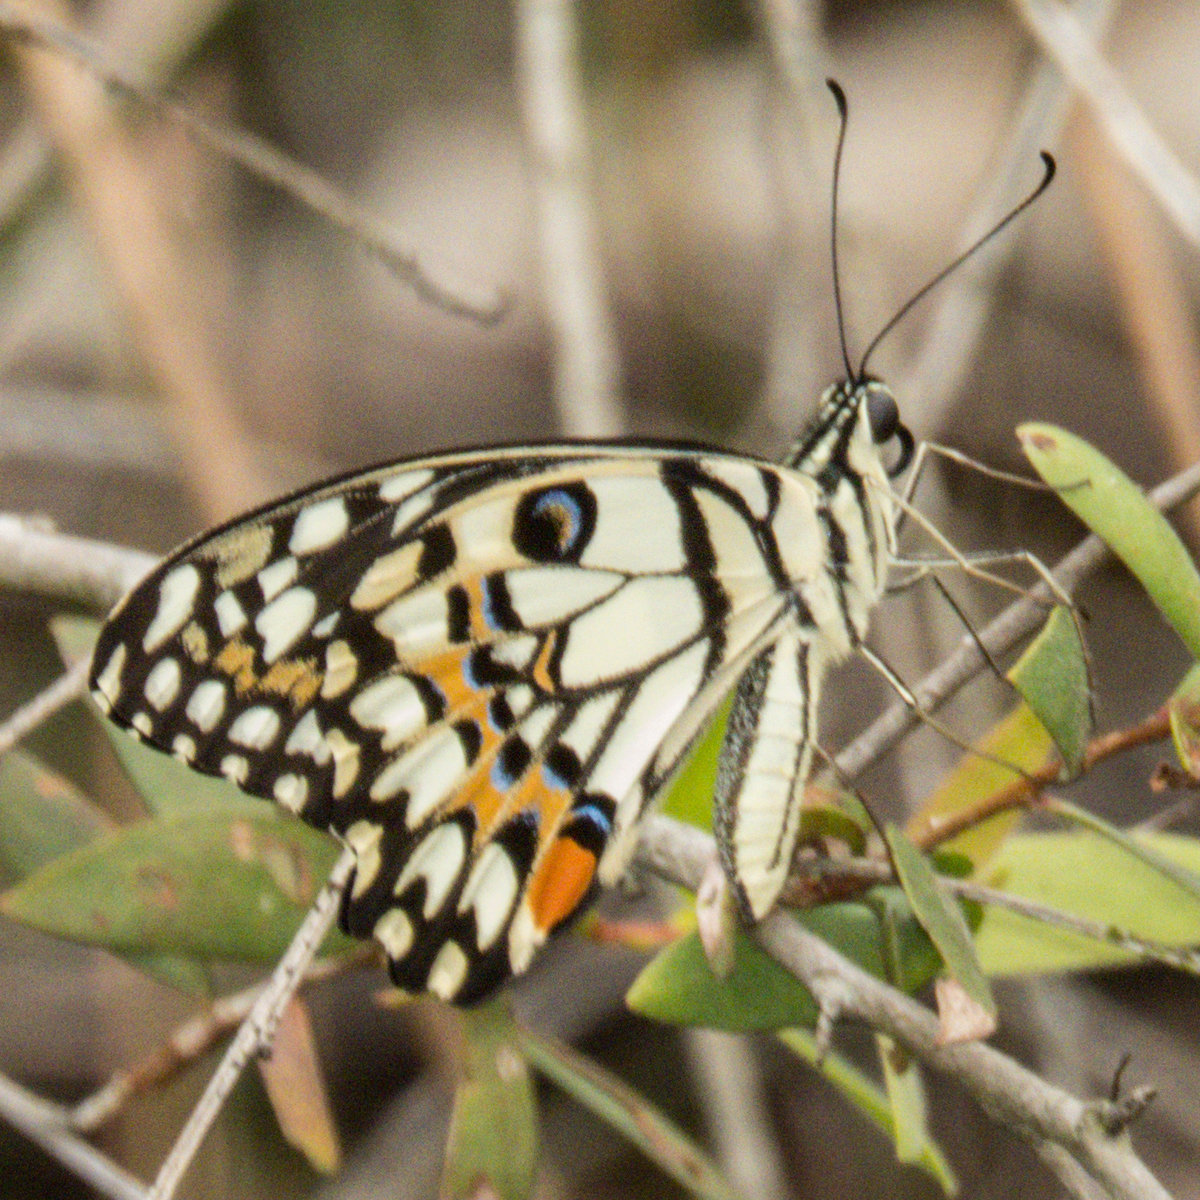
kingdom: Animalia
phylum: Arthropoda
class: Insecta
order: Lepidoptera
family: Papilionidae
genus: Papilio
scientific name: Papilio demoleus
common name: Lime butterfly
